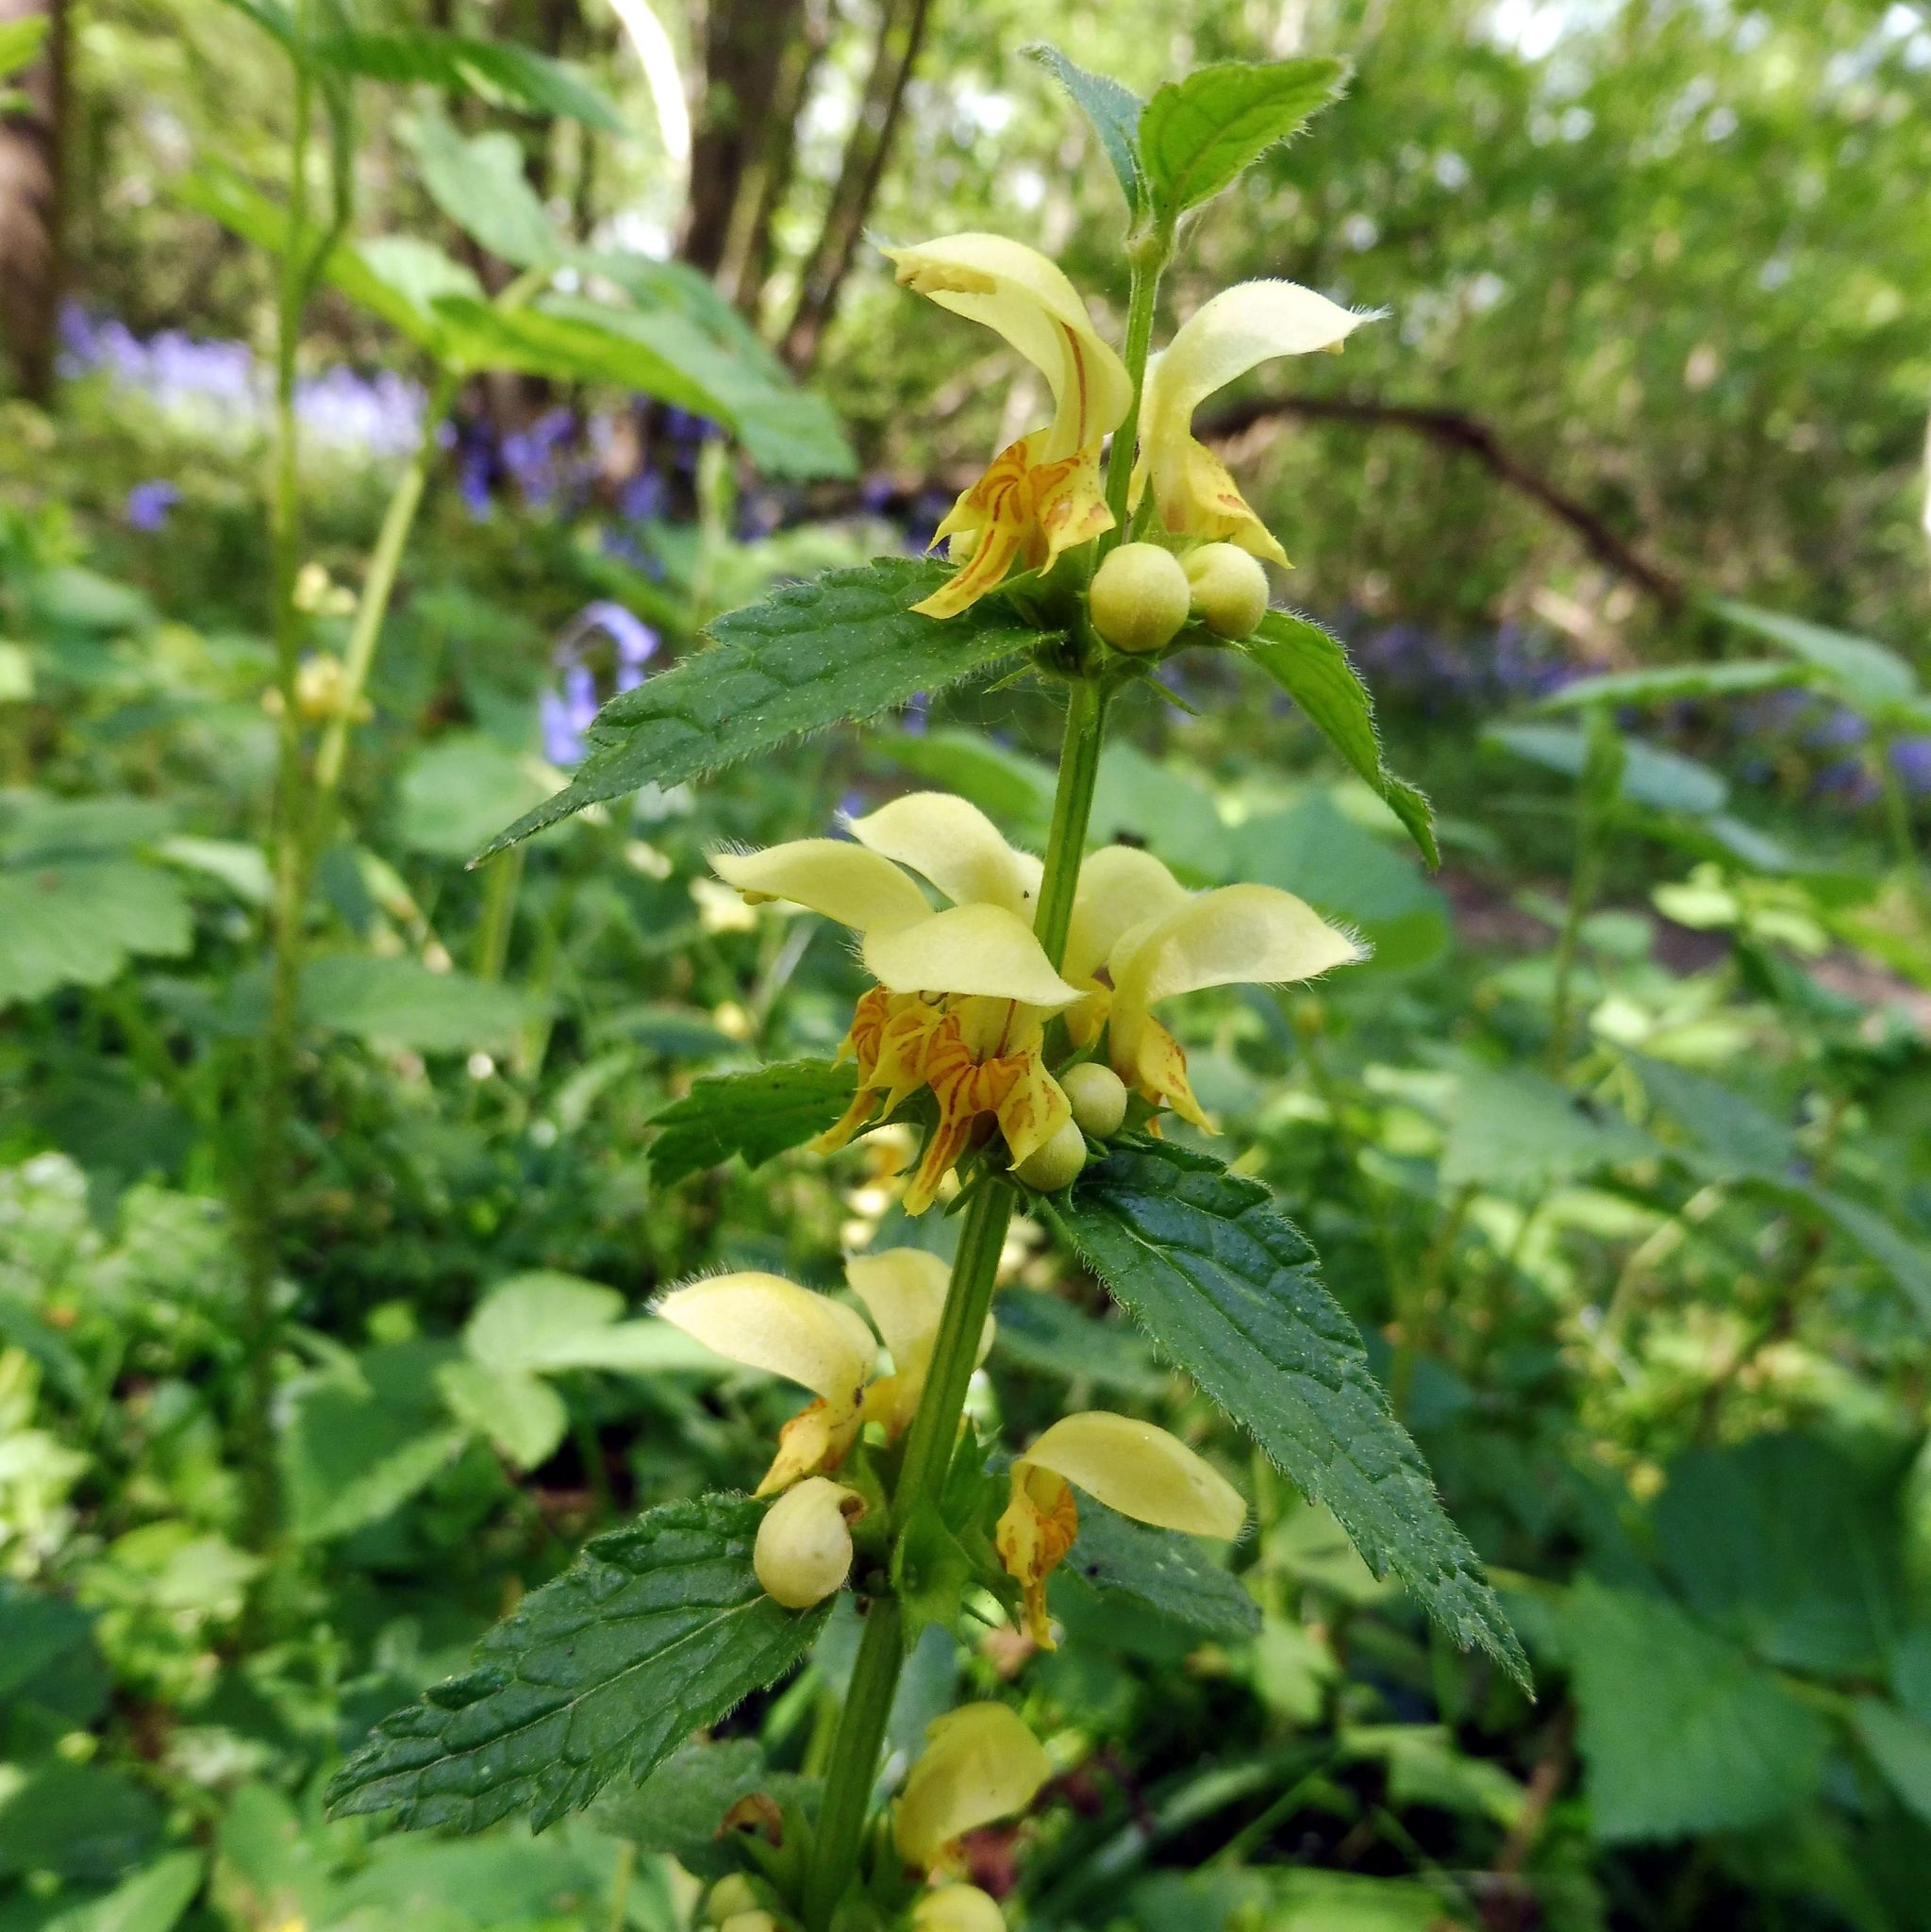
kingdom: Plantae
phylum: Tracheophyta
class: Magnoliopsida
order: Lamiales
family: Lamiaceae
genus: Lamium
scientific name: Lamium galeobdolon
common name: Yellow archangel
